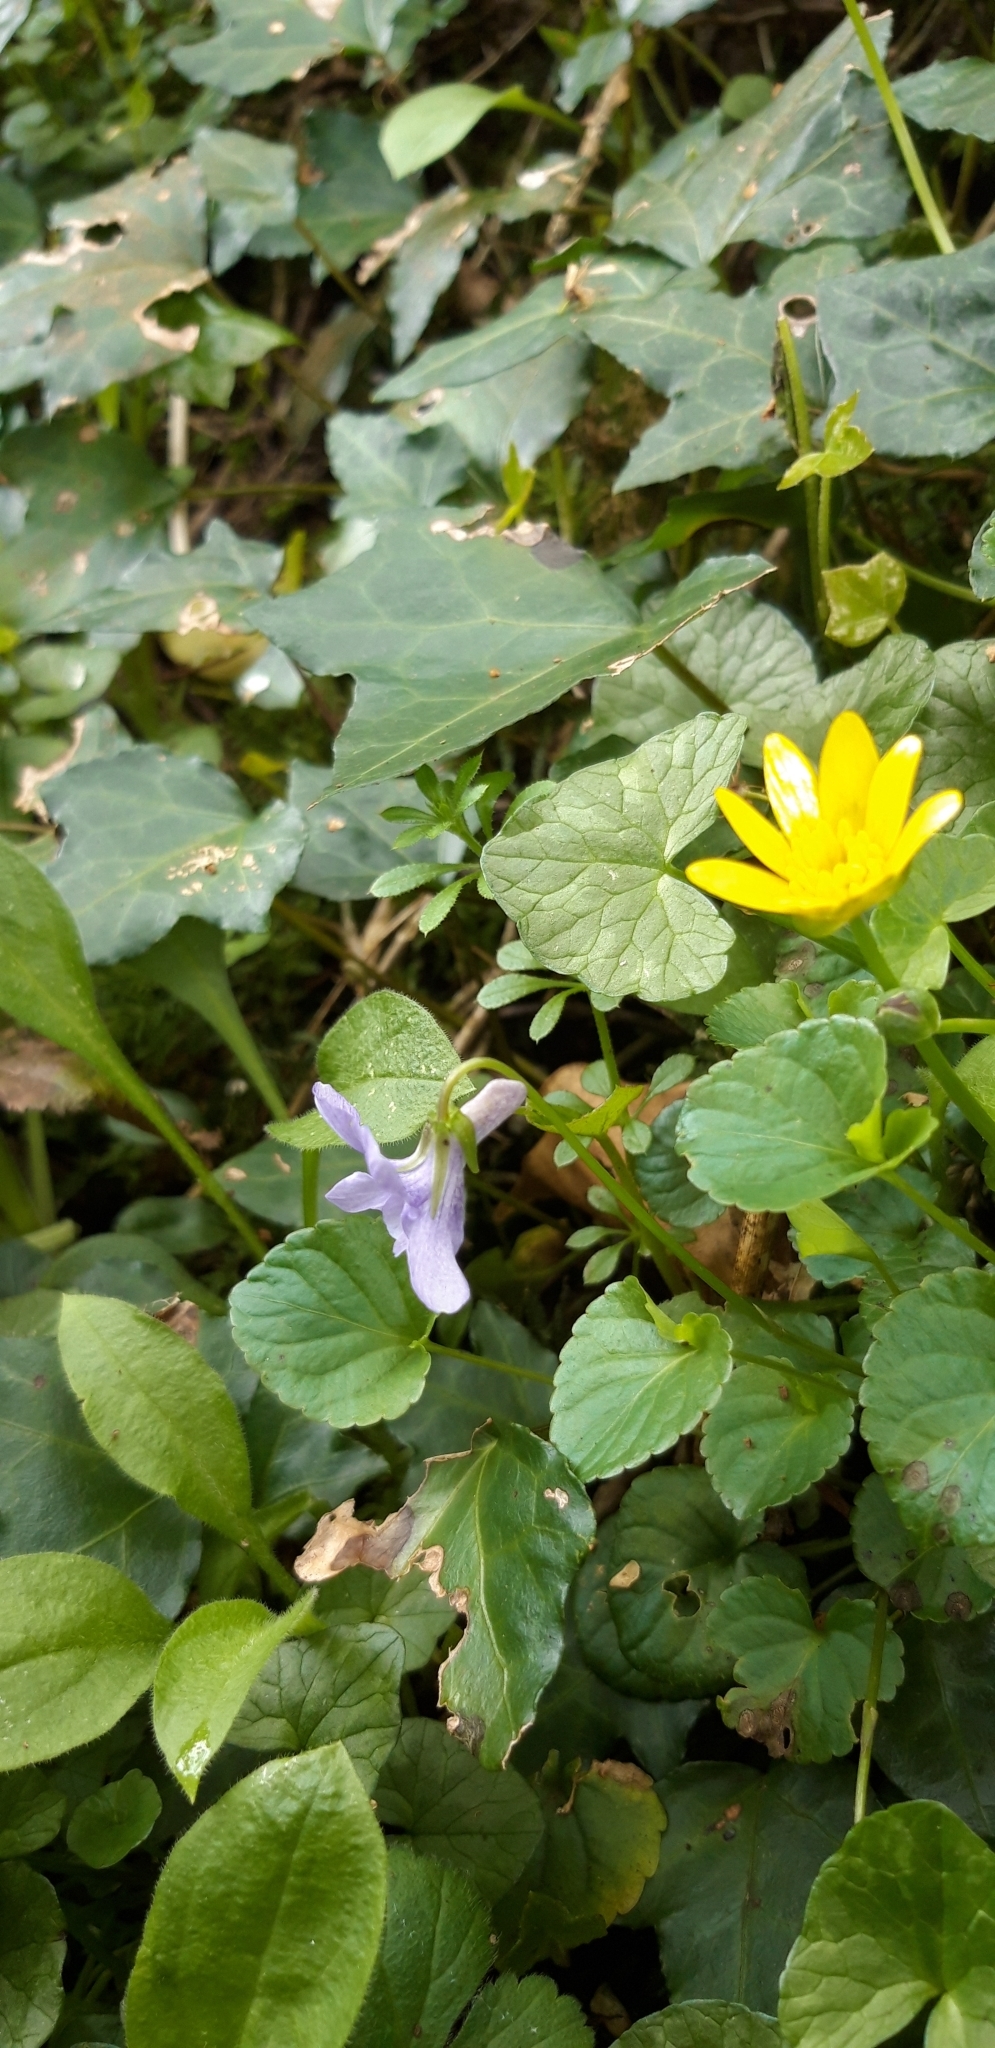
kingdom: Plantae
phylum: Tracheophyta
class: Magnoliopsida
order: Ranunculales
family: Ranunculaceae
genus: Ficaria
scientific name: Ficaria verna
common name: Lesser celandine
